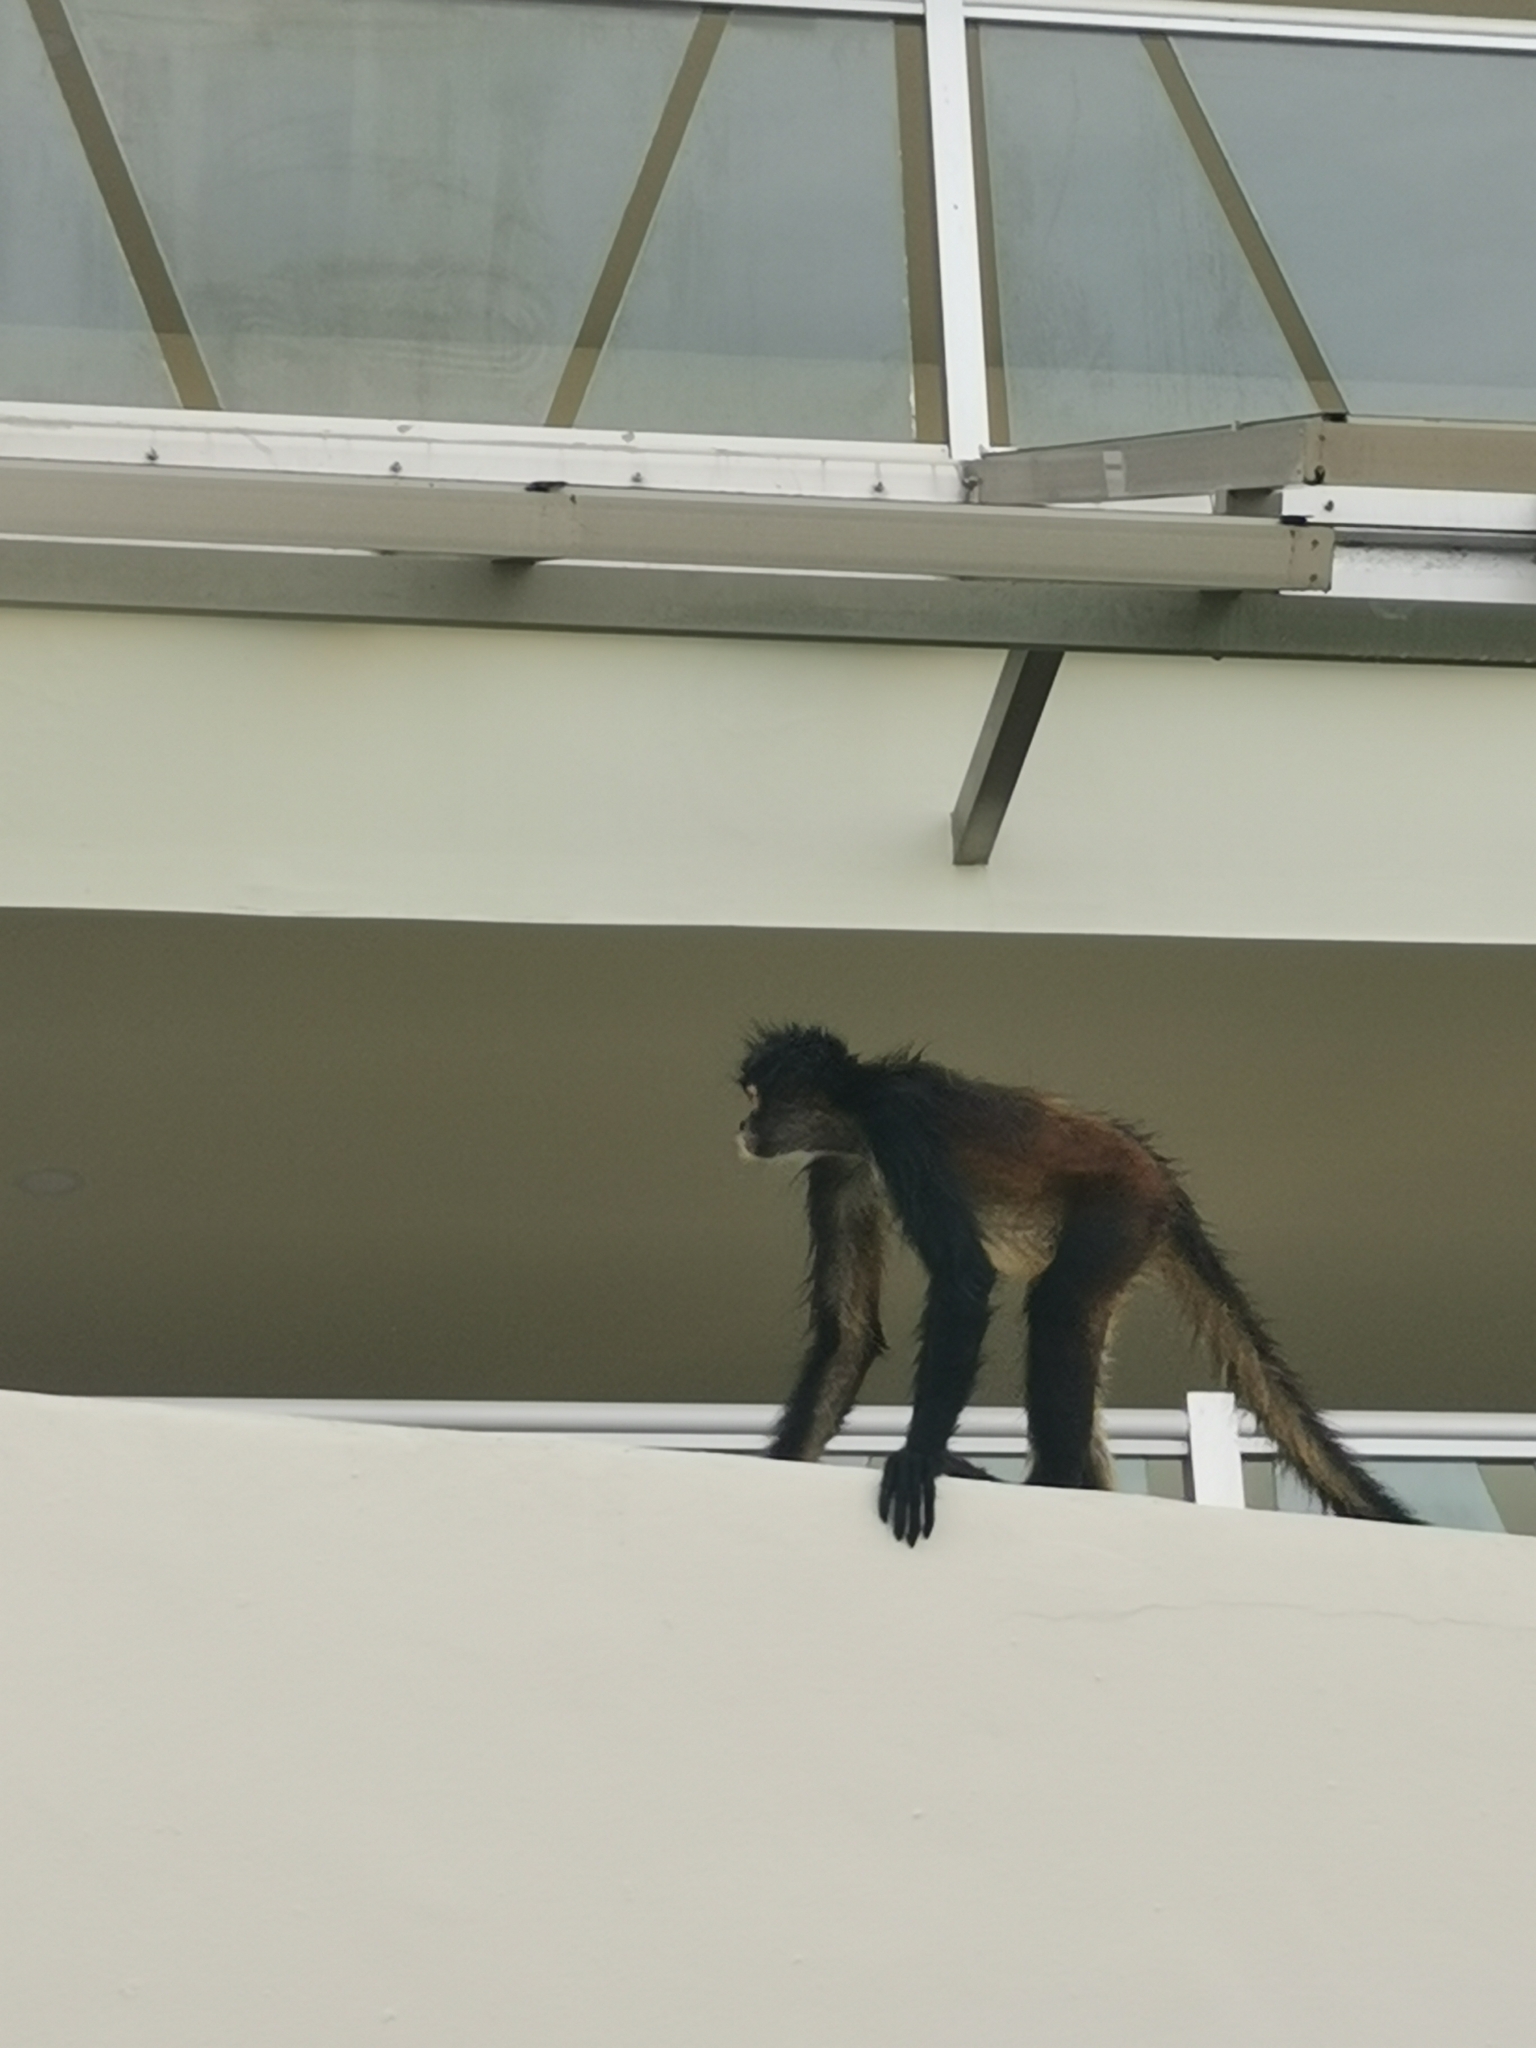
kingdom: Animalia
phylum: Chordata
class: Mammalia
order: Primates
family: Atelidae
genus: Ateles
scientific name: Ateles geoffroyi
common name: Black-handed spider monkey
